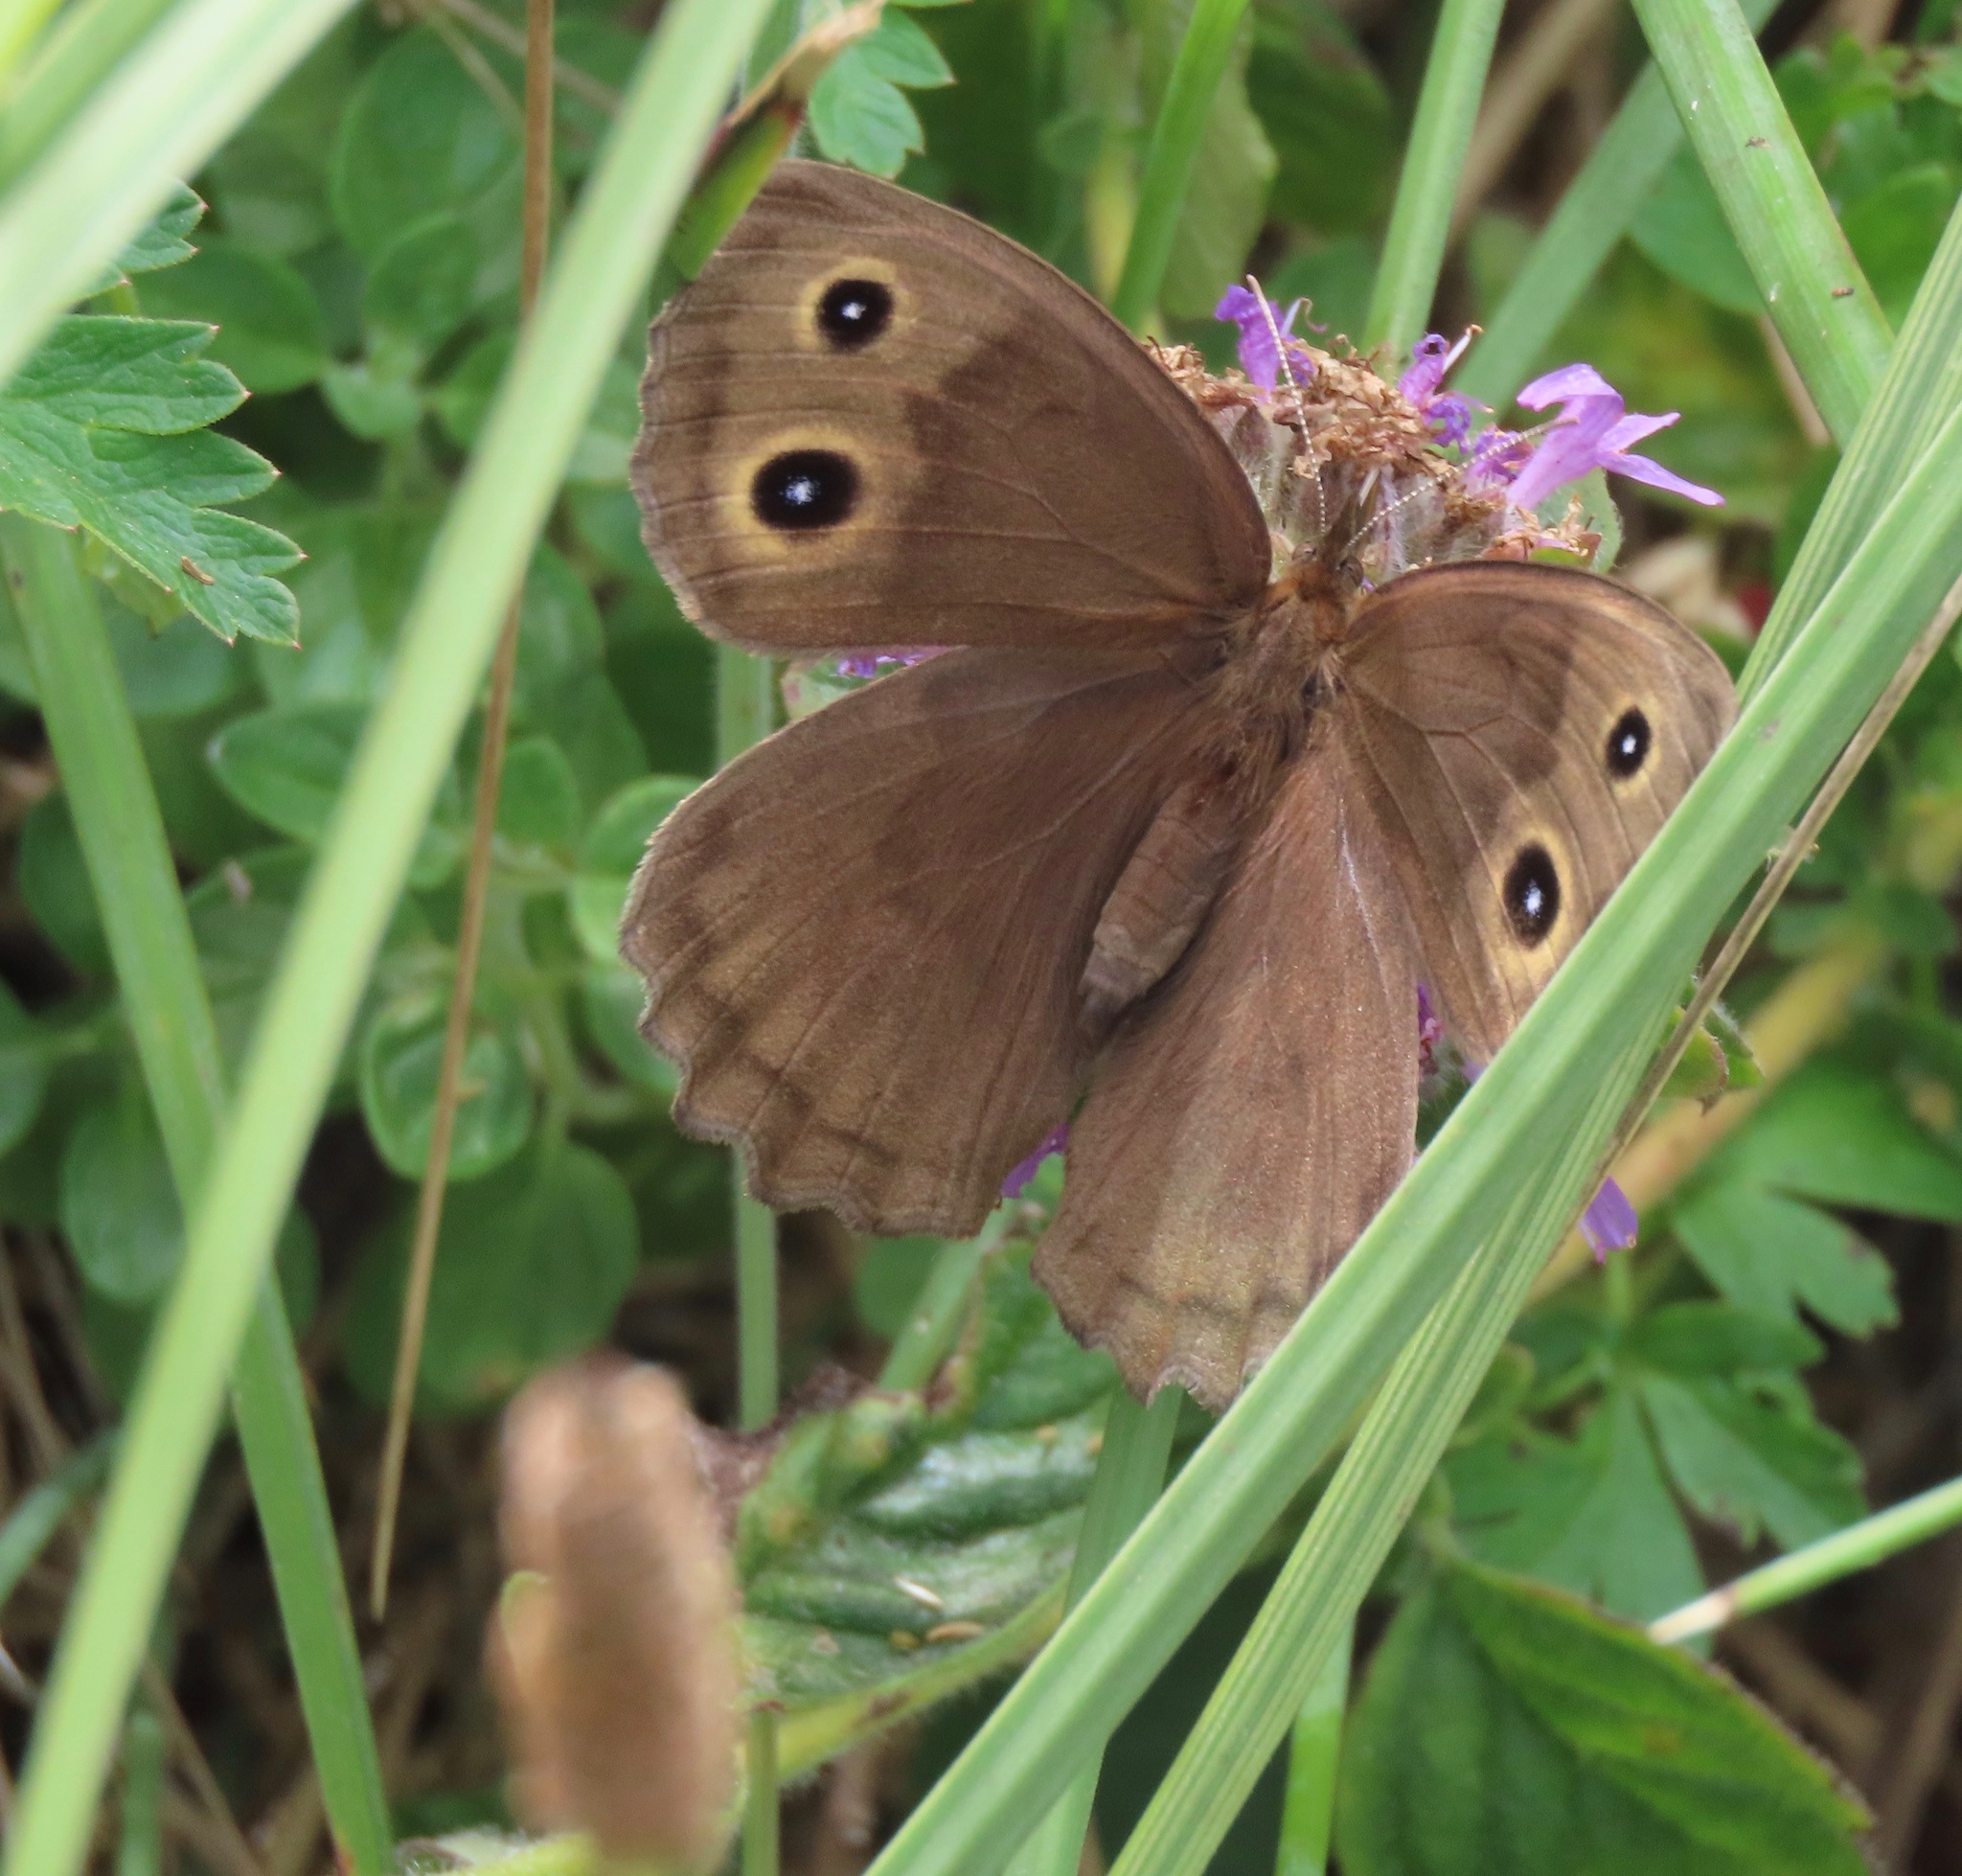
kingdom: Animalia
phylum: Arthropoda
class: Insecta
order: Lepidoptera
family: Nymphalidae
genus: Cercyonis
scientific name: Cercyonis pegala
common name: Common wood-nymph
